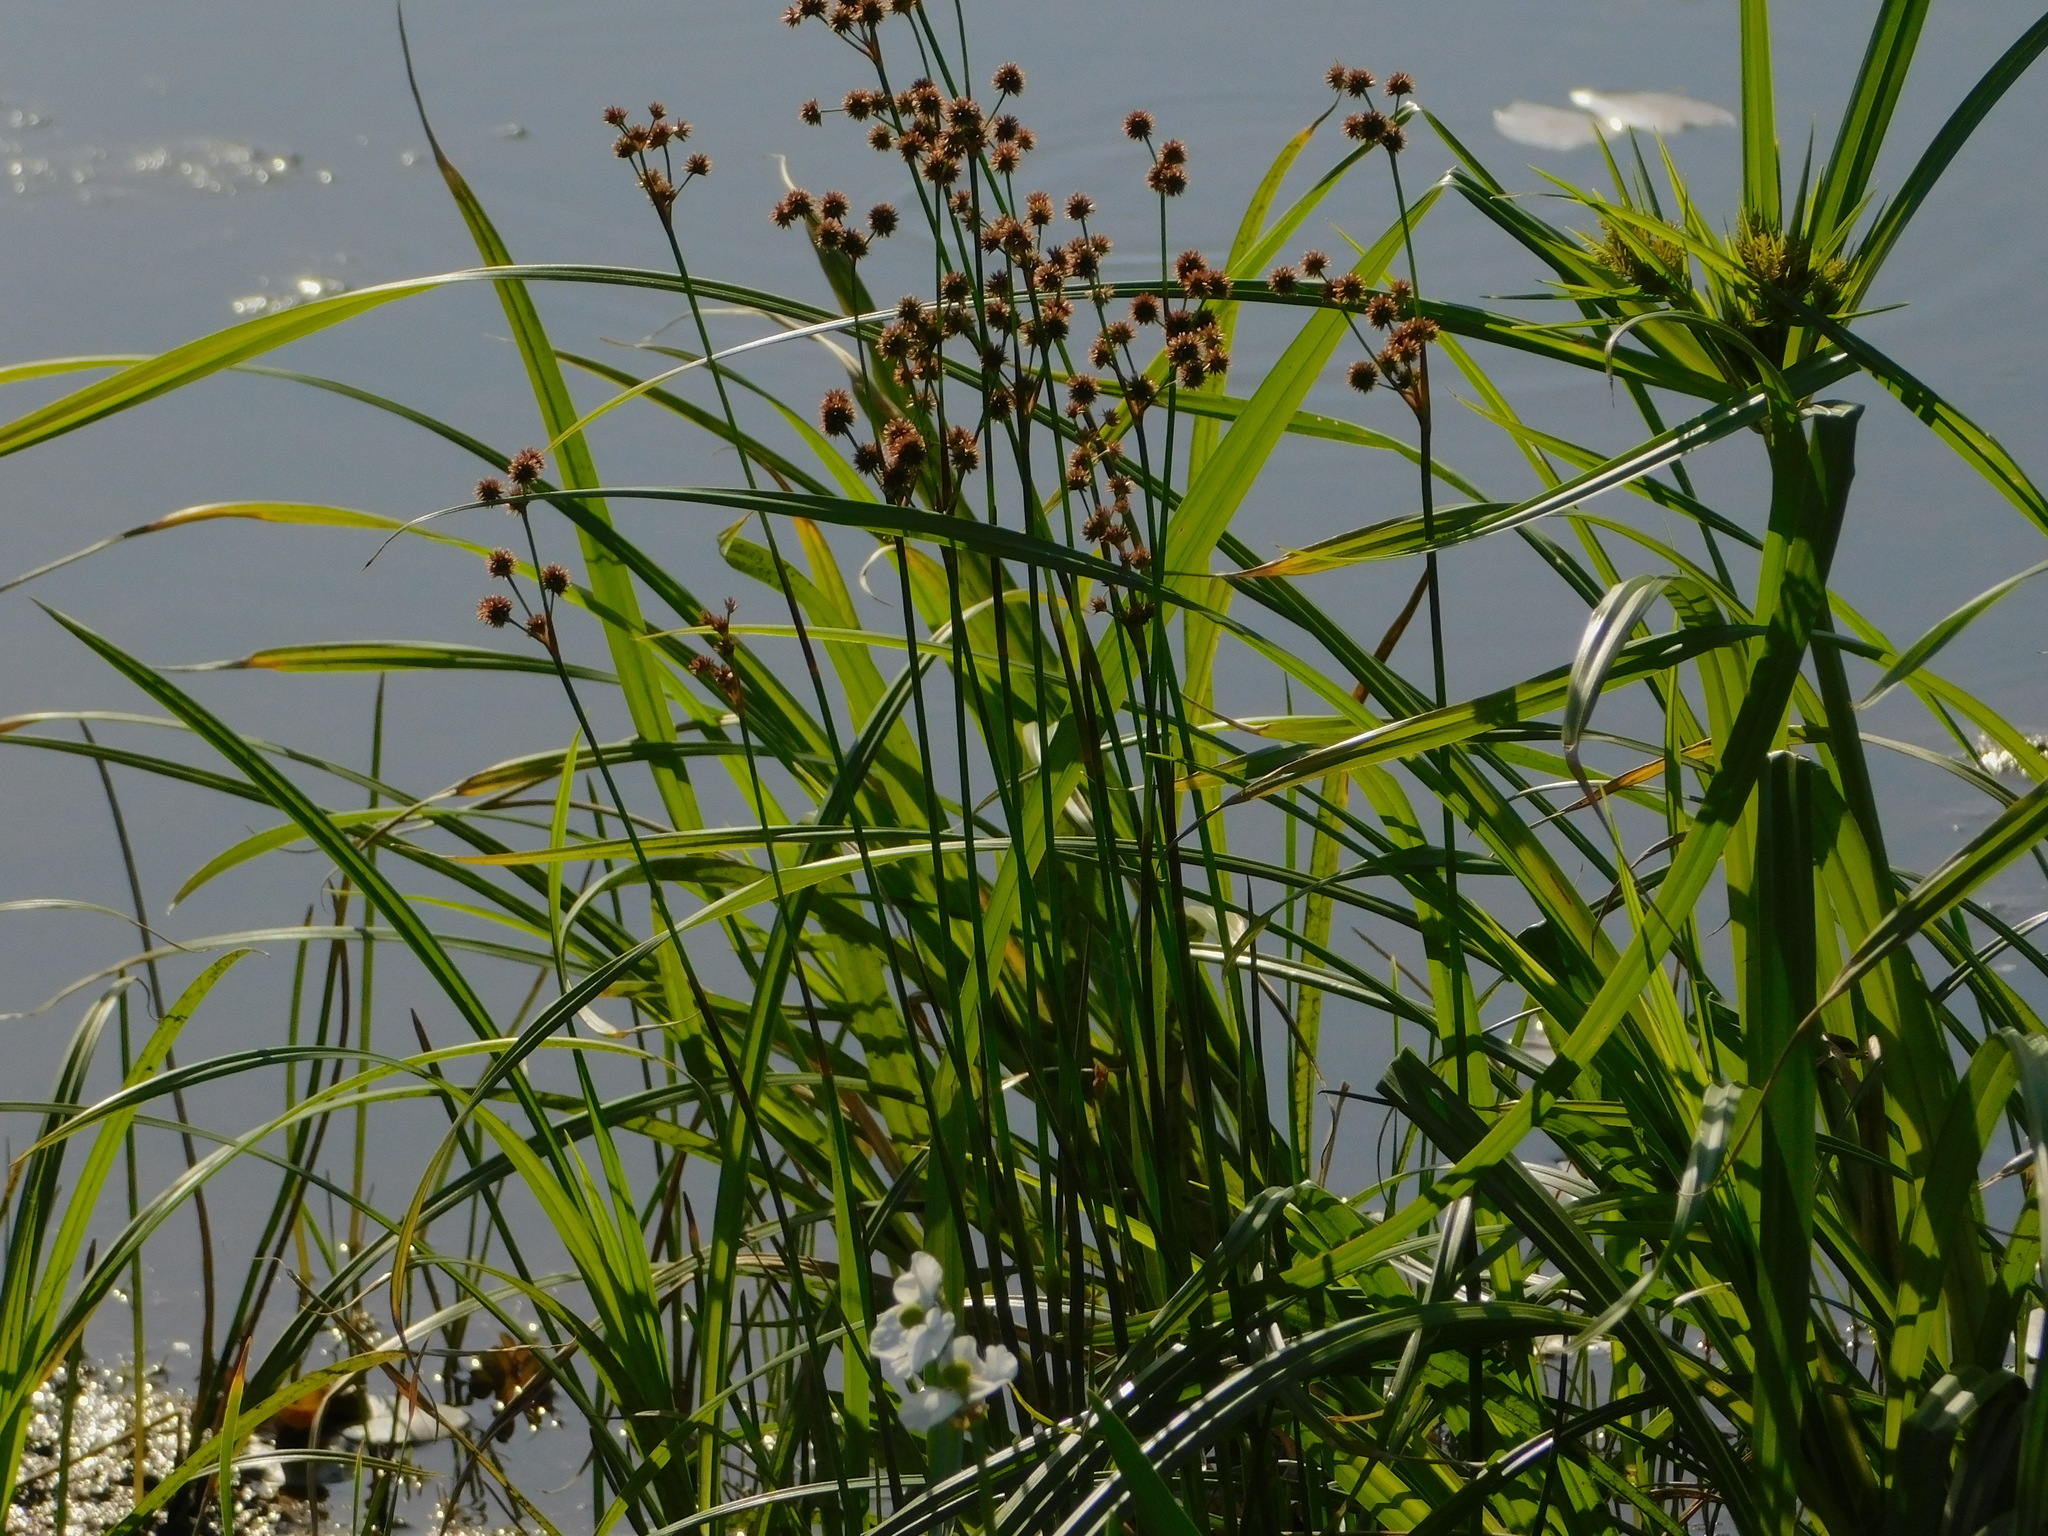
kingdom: Plantae
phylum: Tracheophyta
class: Liliopsida
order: Poales
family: Juncaceae
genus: Juncus
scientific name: Juncus megacephalus
